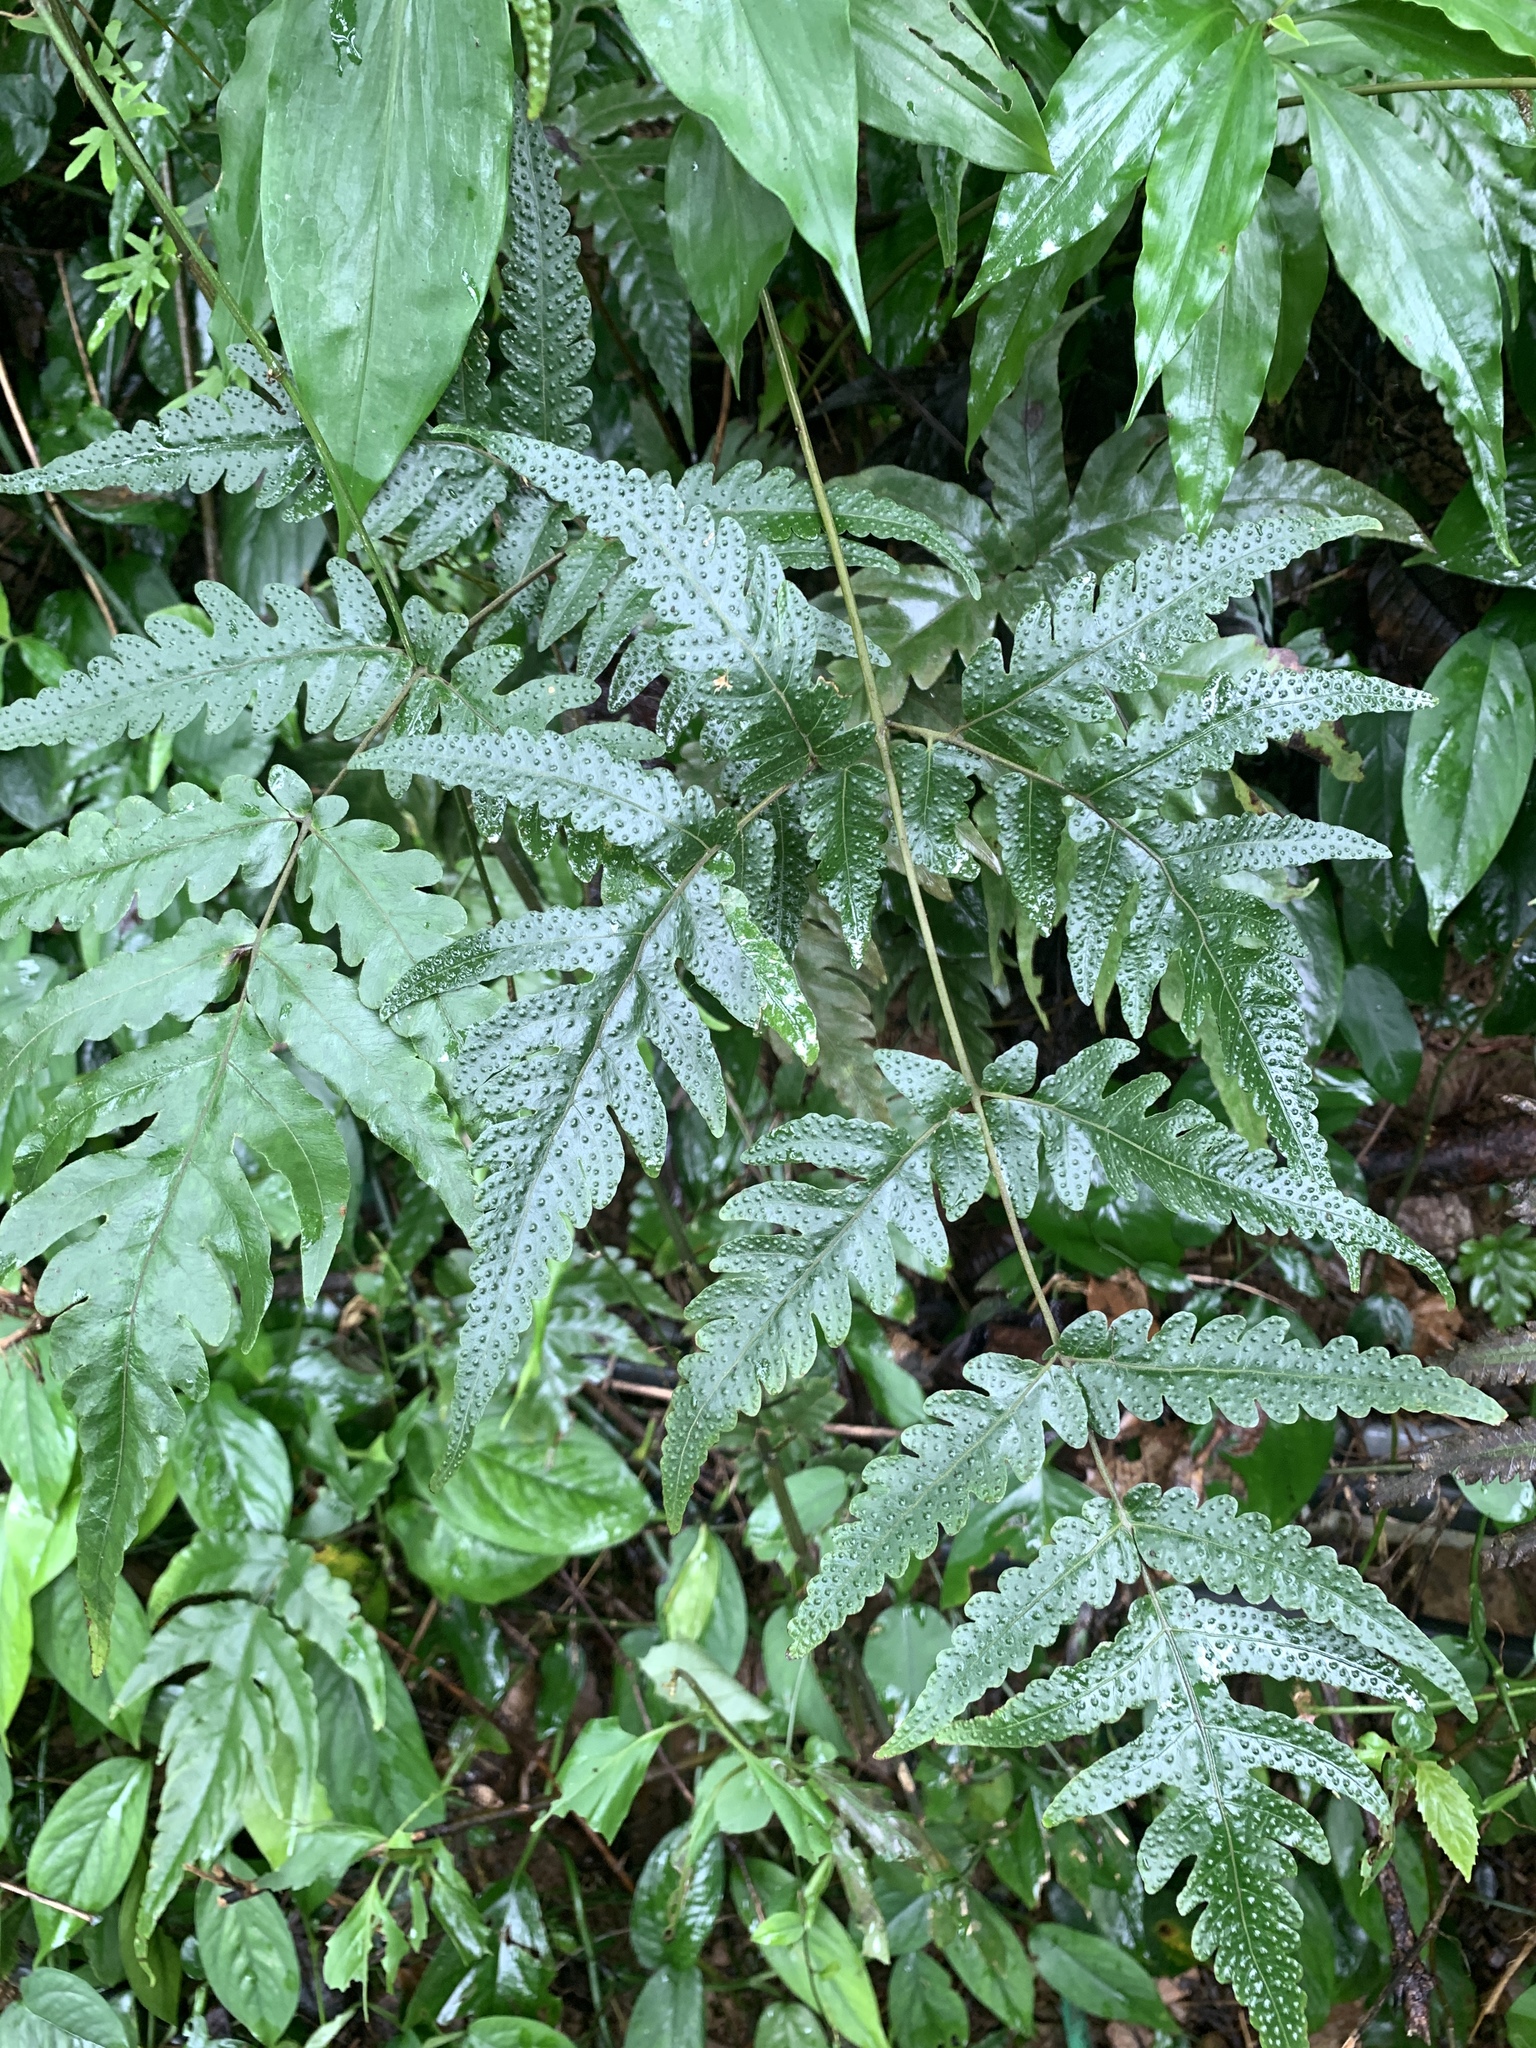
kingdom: Plantae
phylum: Tracheophyta
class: Polypodiopsida
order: Polypodiales
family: Tectariaceae
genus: Tectaria
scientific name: Tectaria phaeocaulis
